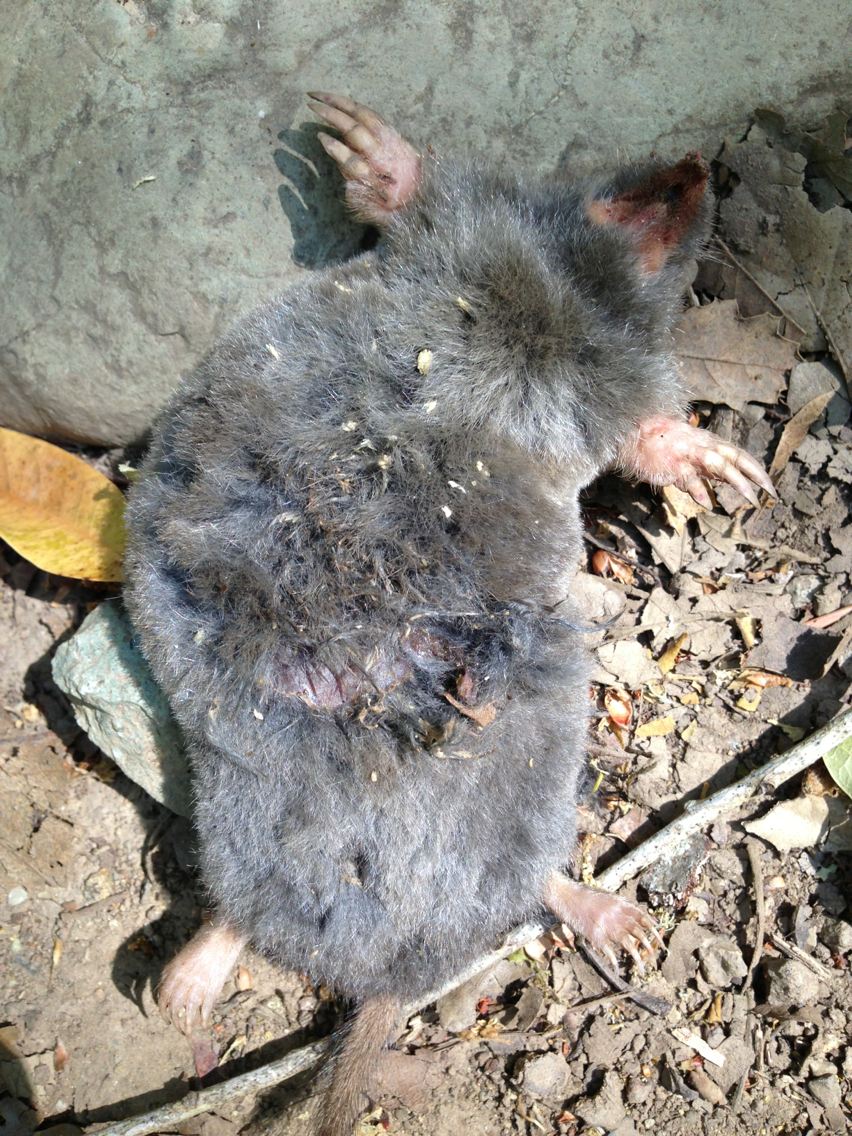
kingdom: Animalia
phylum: Chordata
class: Mammalia
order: Soricomorpha
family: Talpidae
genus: Scapanus
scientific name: Scapanus latimanus
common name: Broad-footed mole
